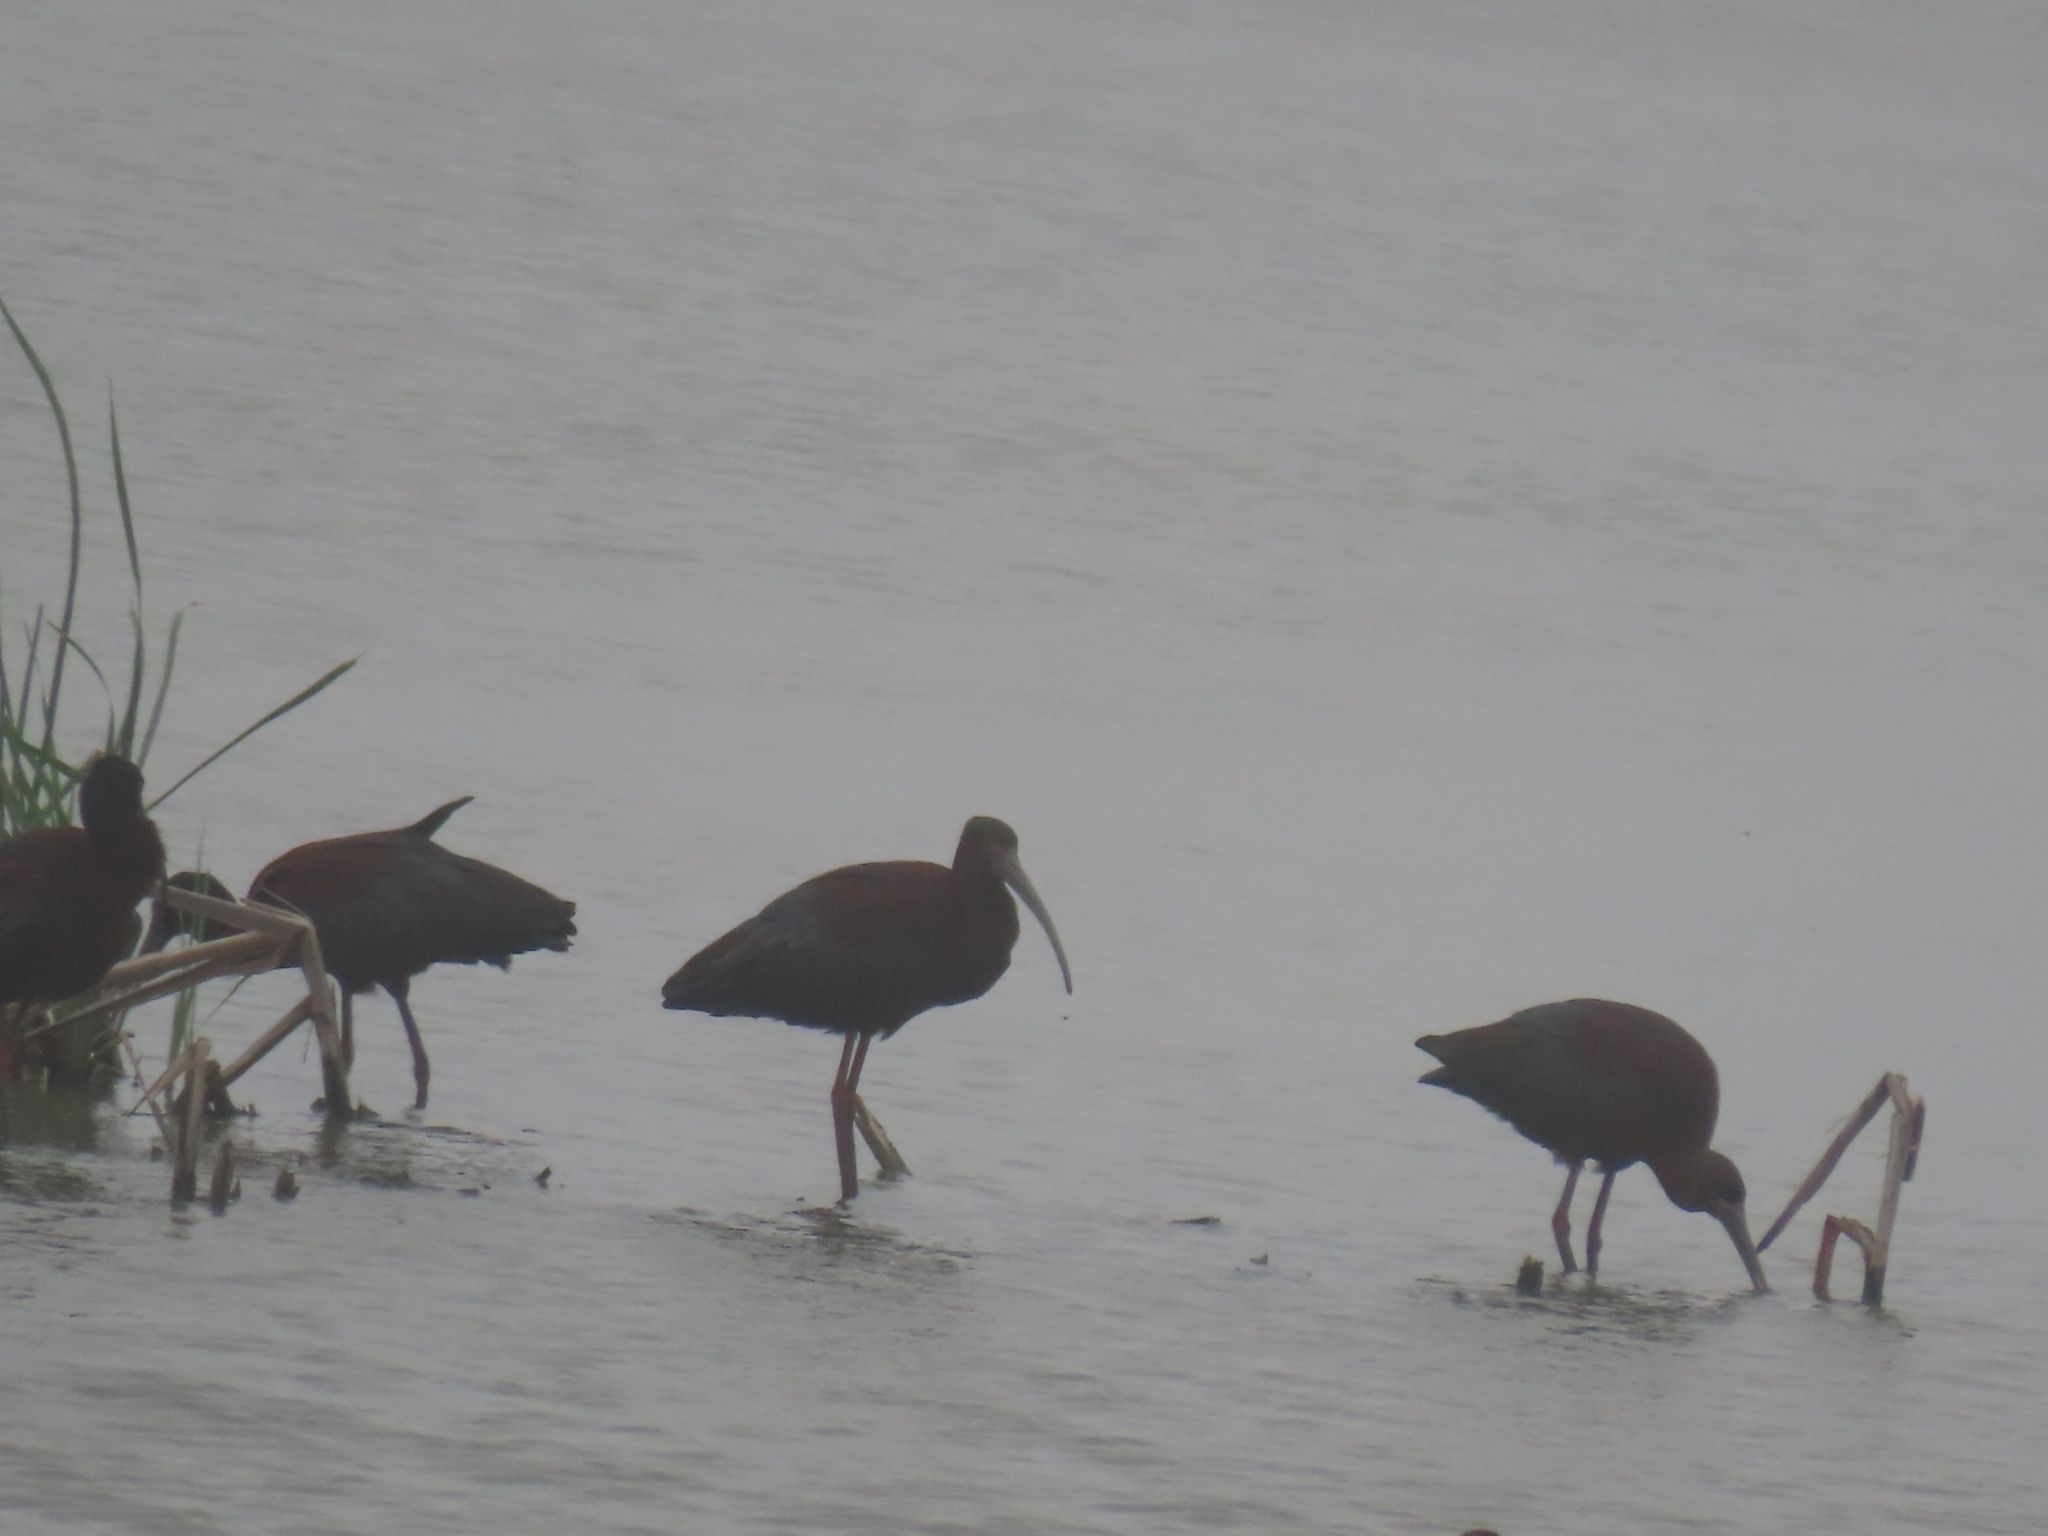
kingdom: Animalia
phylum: Chordata
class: Aves
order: Pelecaniformes
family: Threskiornithidae
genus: Plegadis
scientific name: Plegadis chihi
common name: White-faced ibis
